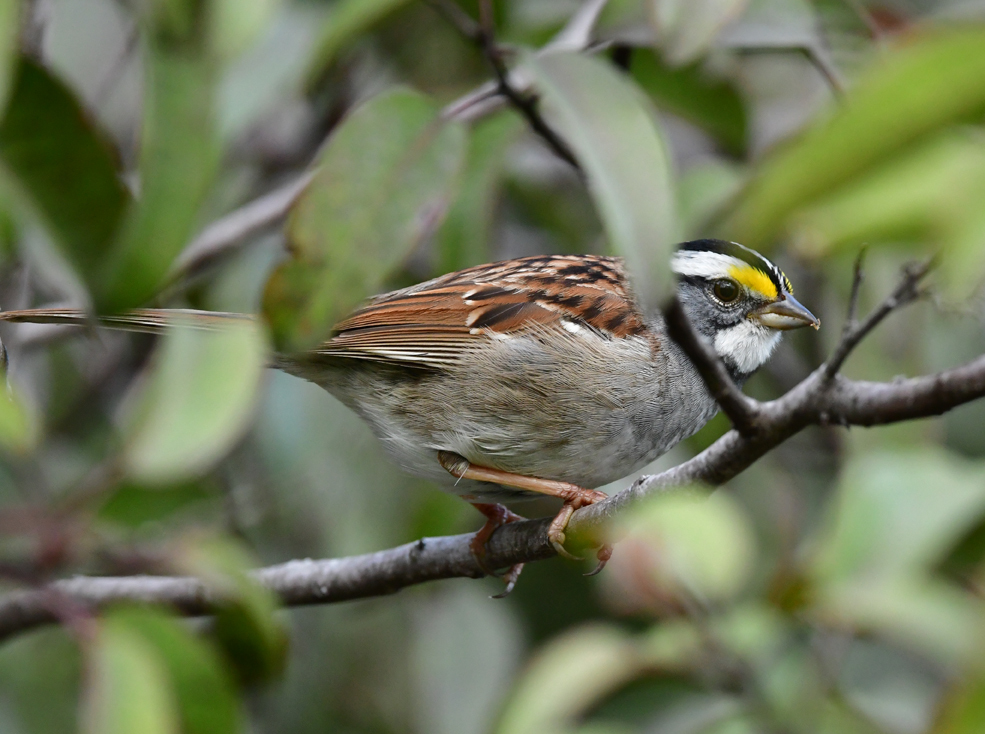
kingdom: Animalia
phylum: Chordata
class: Aves
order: Passeriformes
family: Passerellidae
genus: Zonotrichia
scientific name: Zonotrichia albicollis
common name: White-throated sparrow
